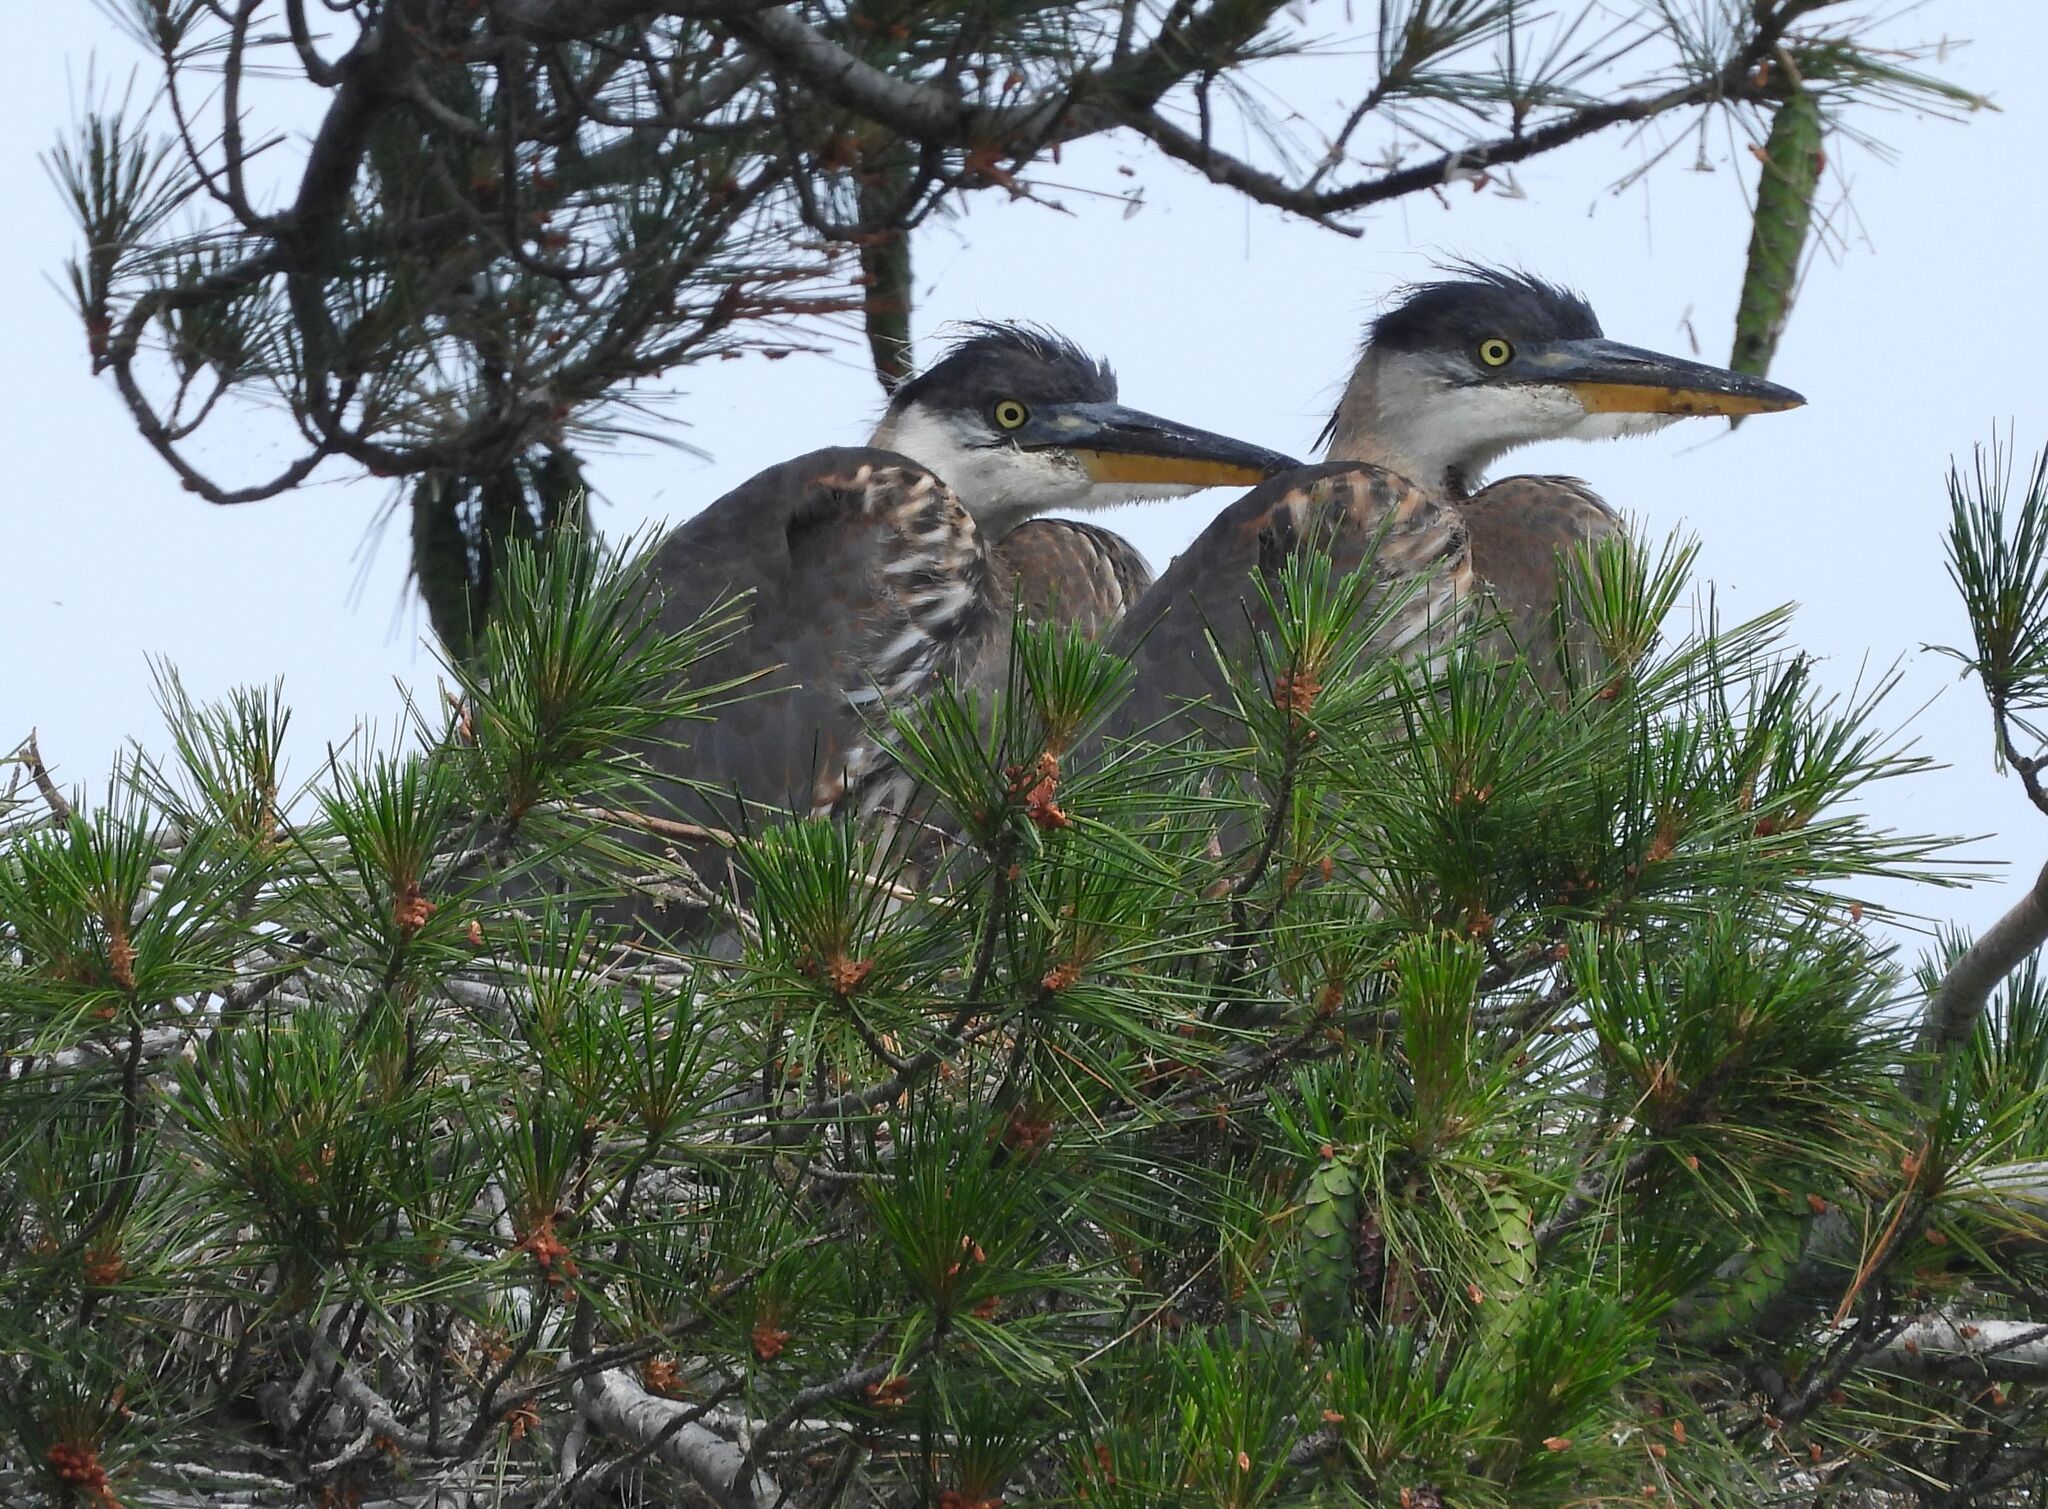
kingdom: Animalia
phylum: Chordata
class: Aves
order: Pelecaniformes
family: Ardeidae
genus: Ardea
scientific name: Ardea herodias
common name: Great blue heron
